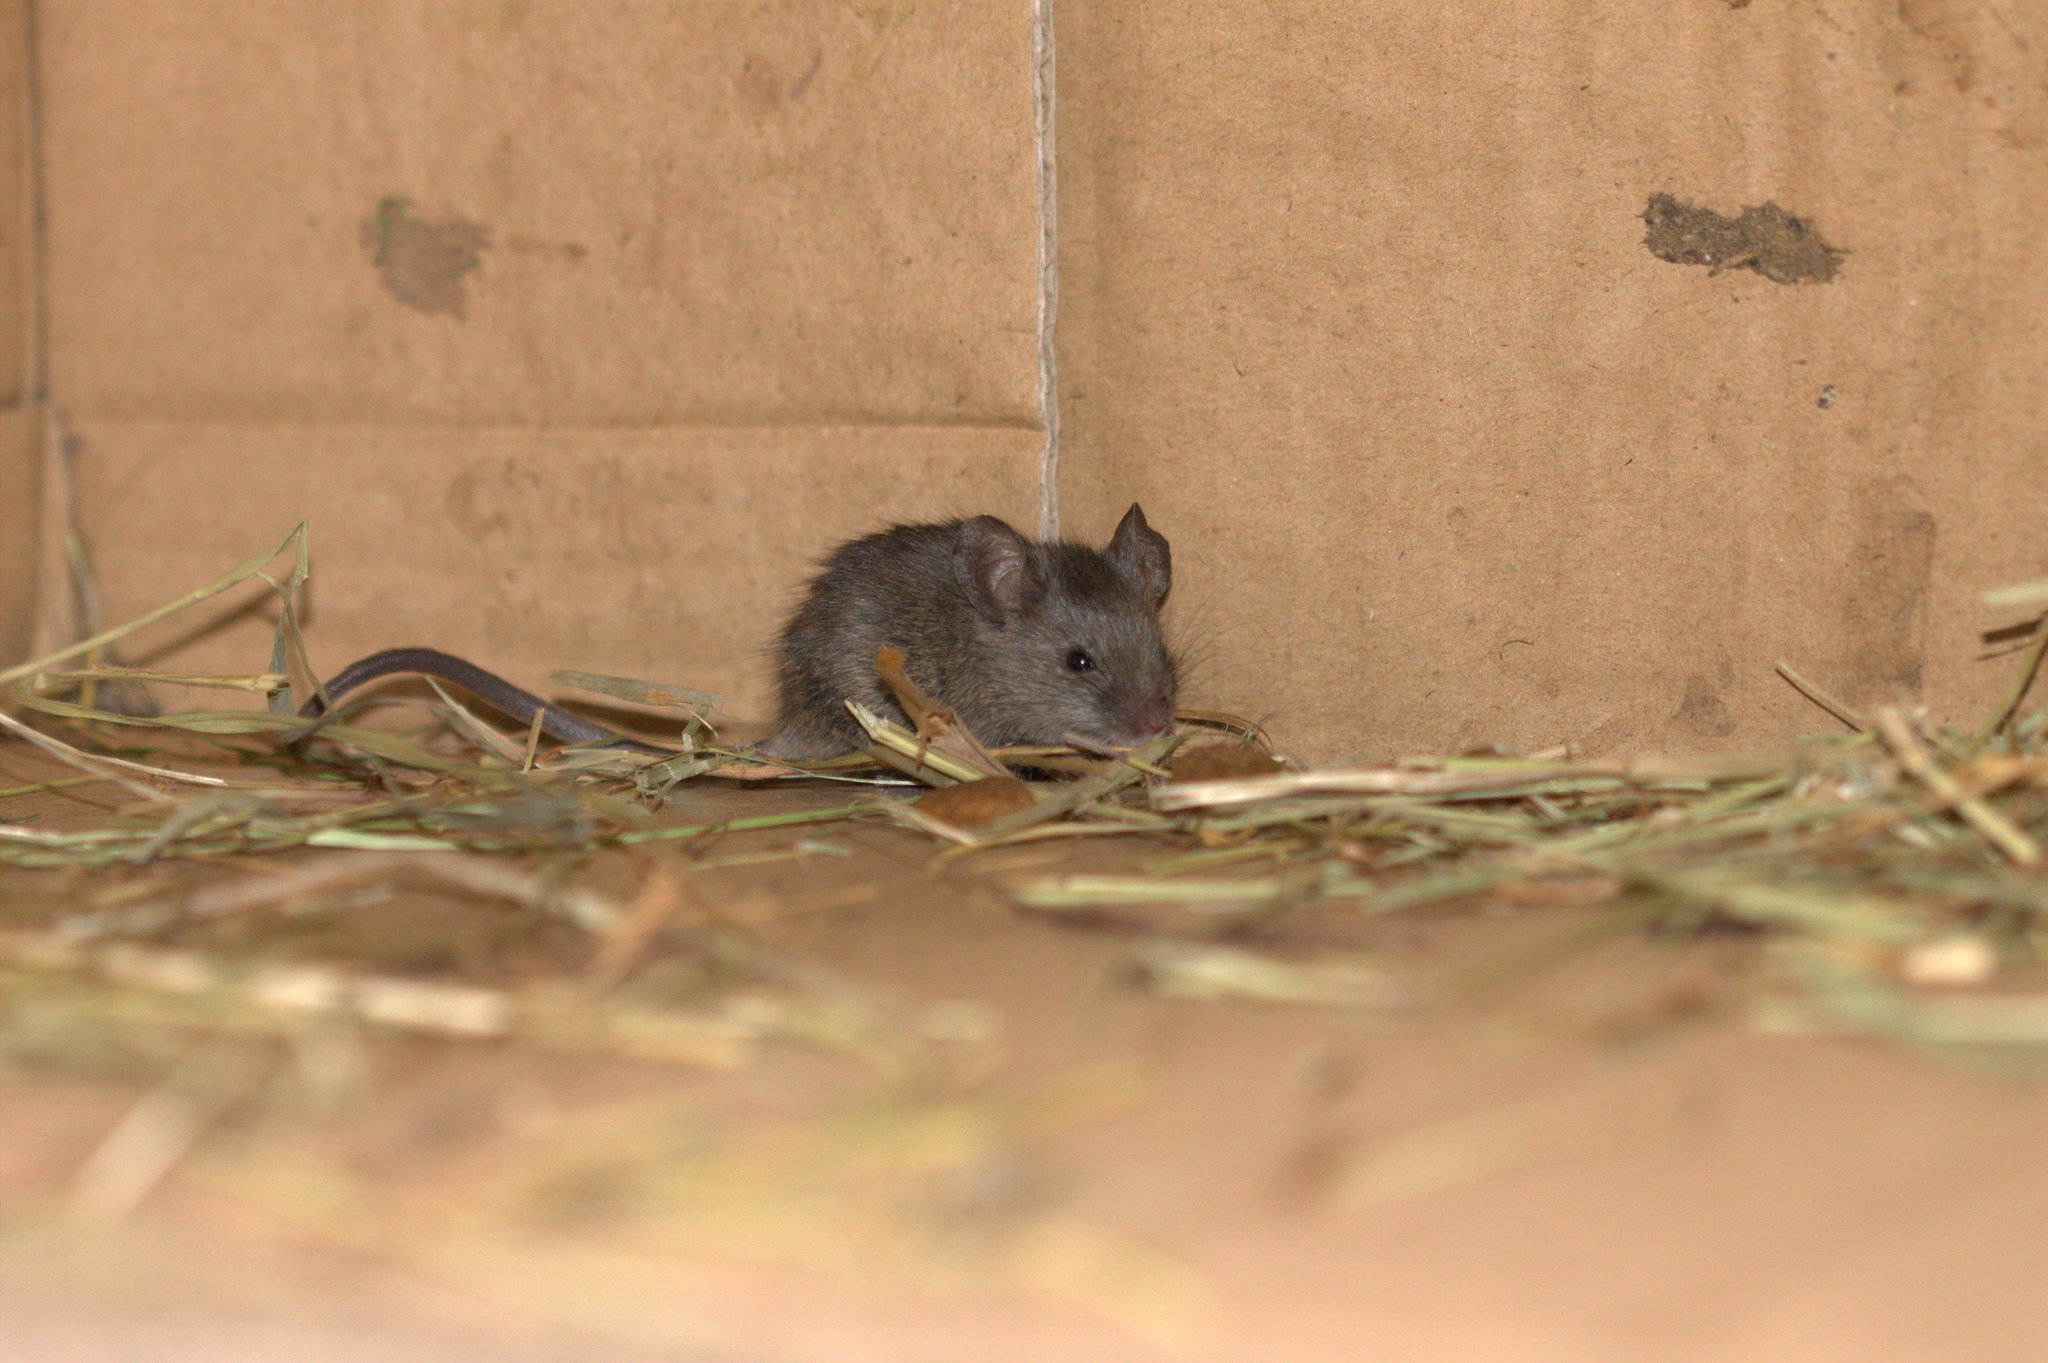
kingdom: Animalia
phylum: Chordata
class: Mammalia
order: Rodentia
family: Muridae
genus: Mus
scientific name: Mus musculus
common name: House mouse
